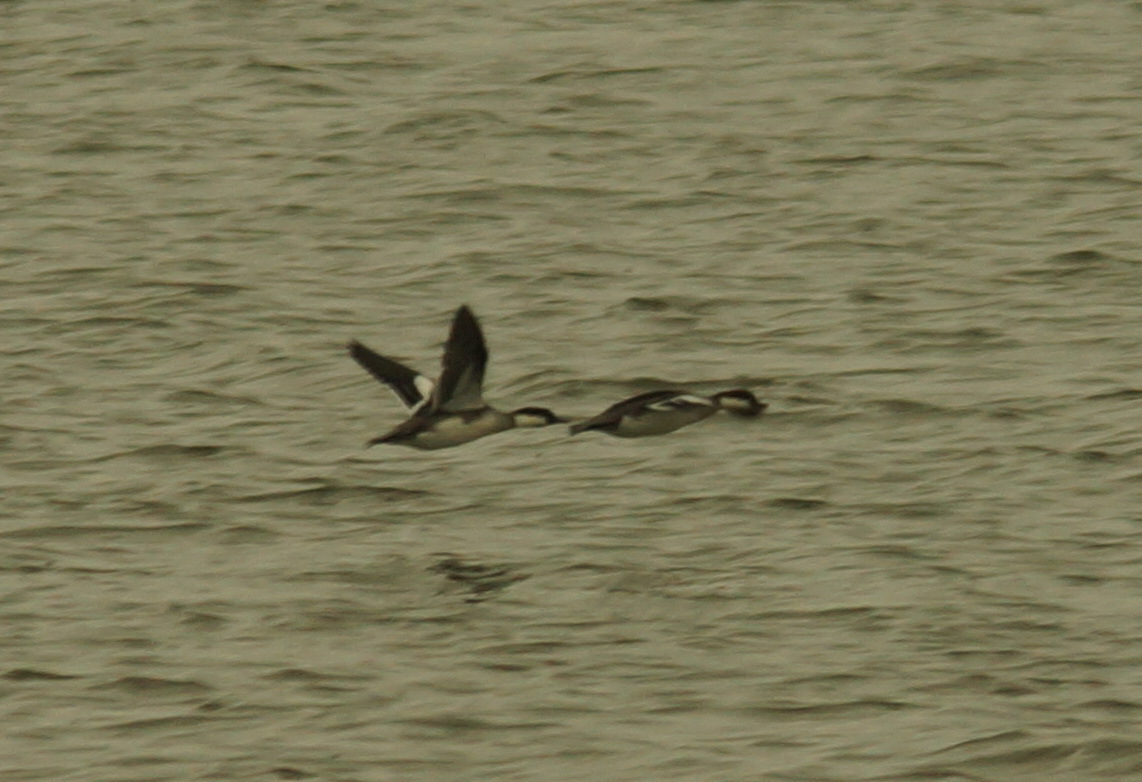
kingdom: Animalia
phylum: Chordata
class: Aves
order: Anseriformes
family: Anatidae
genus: Mergellus
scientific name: Mergellus albellus
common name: Smew
